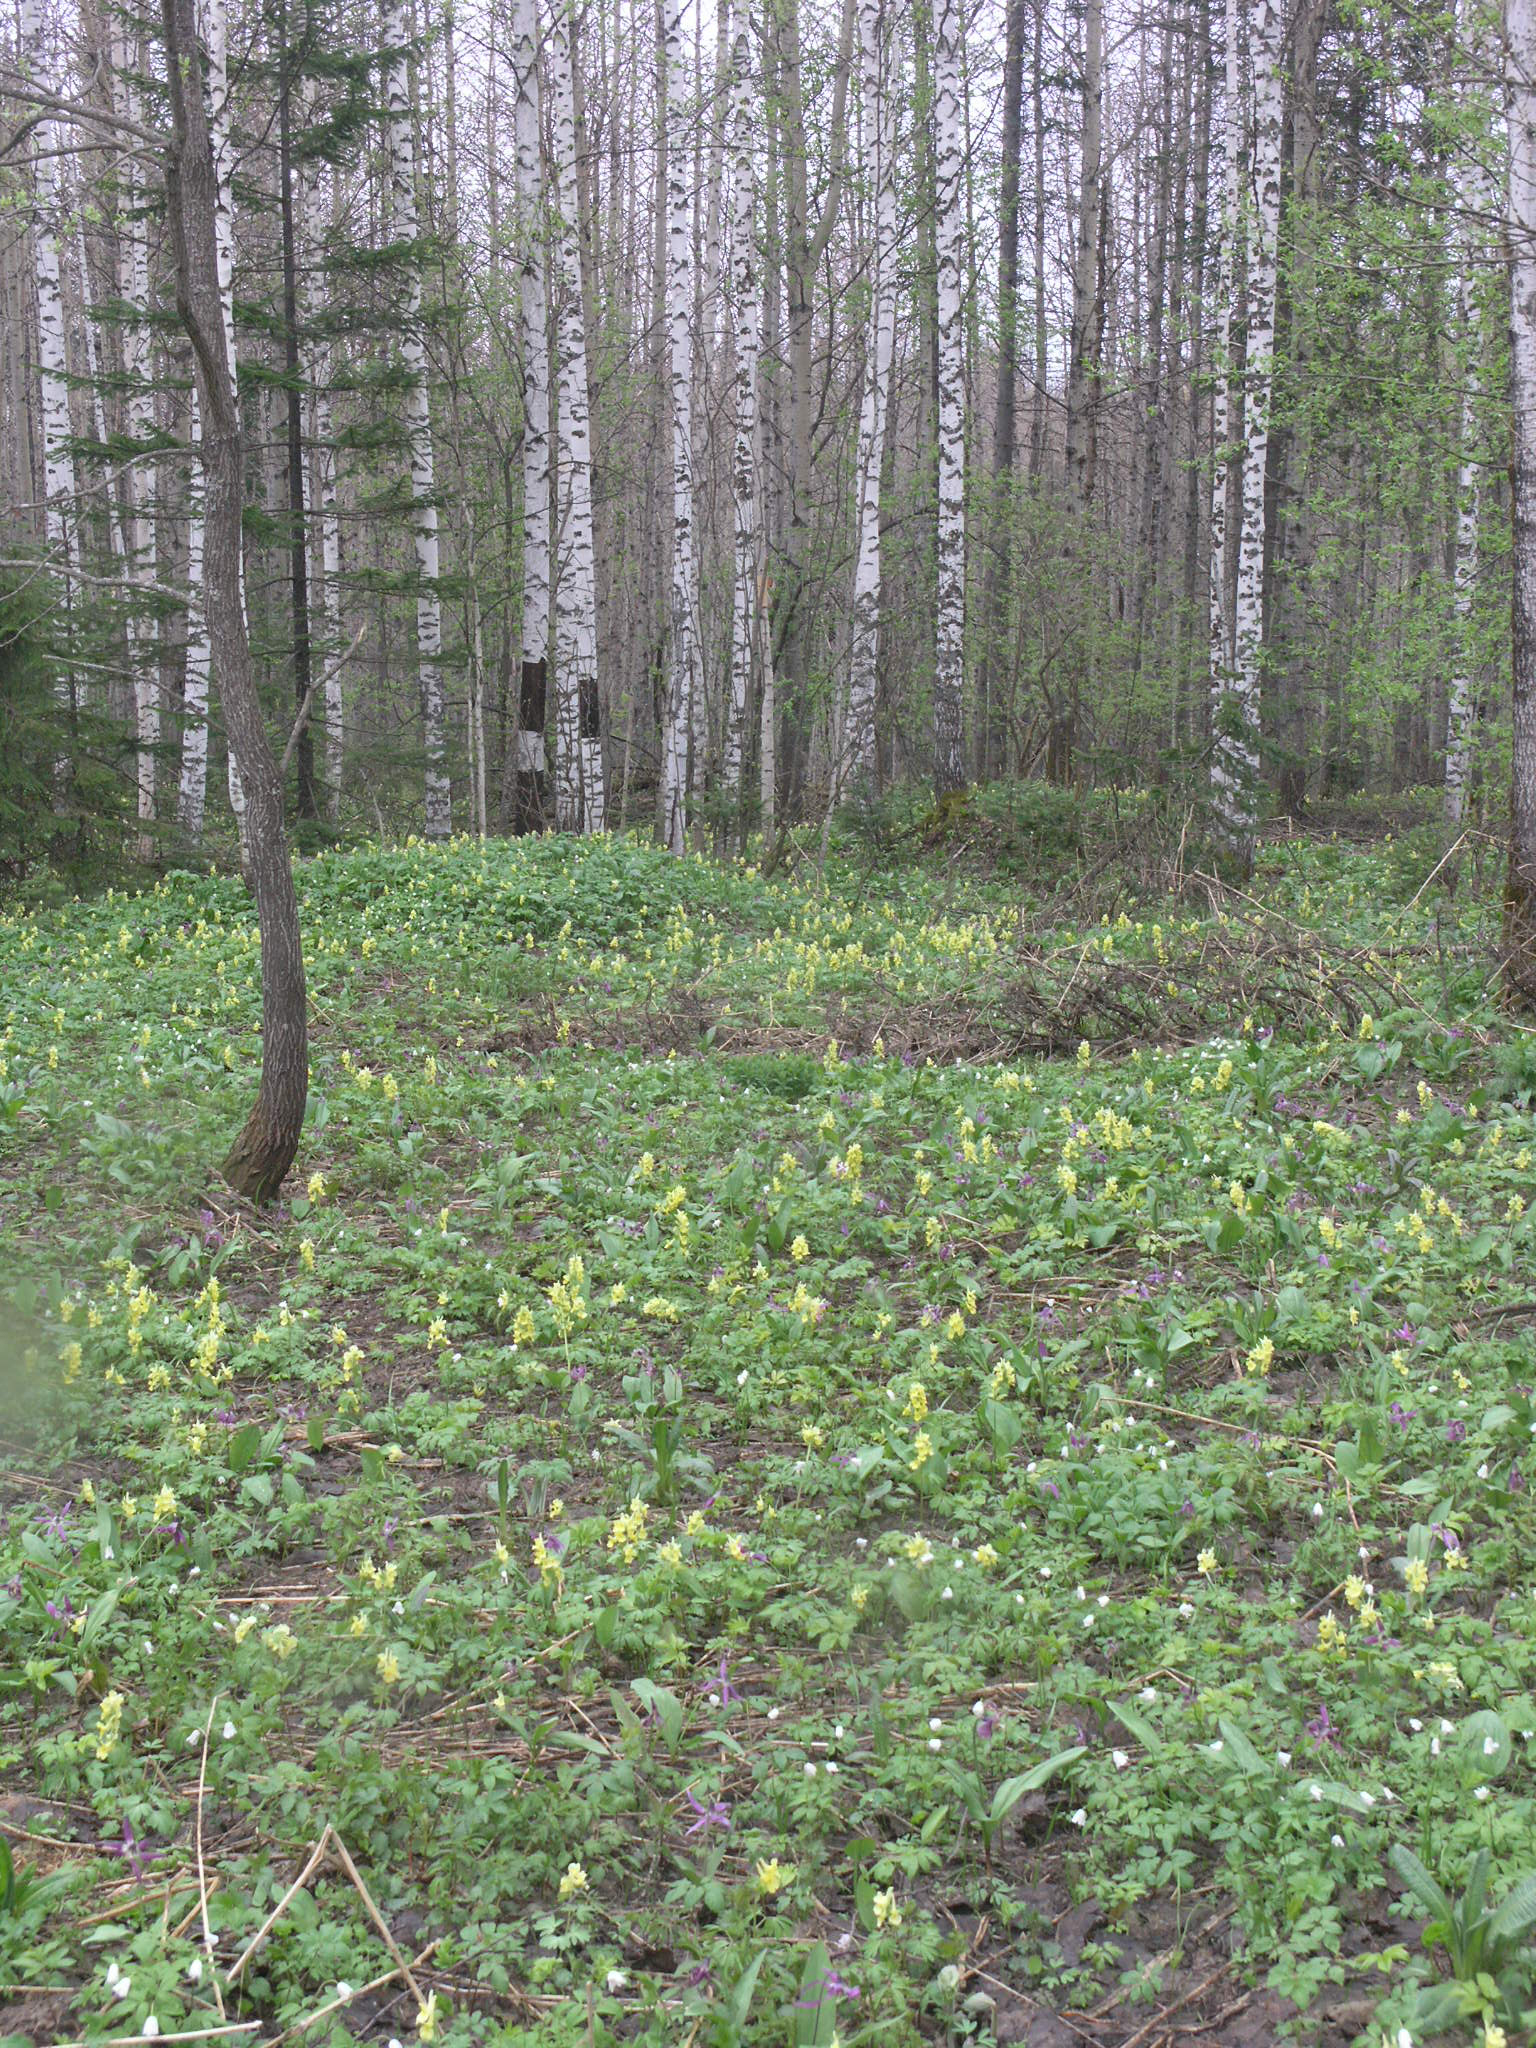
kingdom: Plantae
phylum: Tracheophyta
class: Pinopsida
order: Pinales
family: Pinaceae
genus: Abies
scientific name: Abies sibirica
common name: Siberian fir
